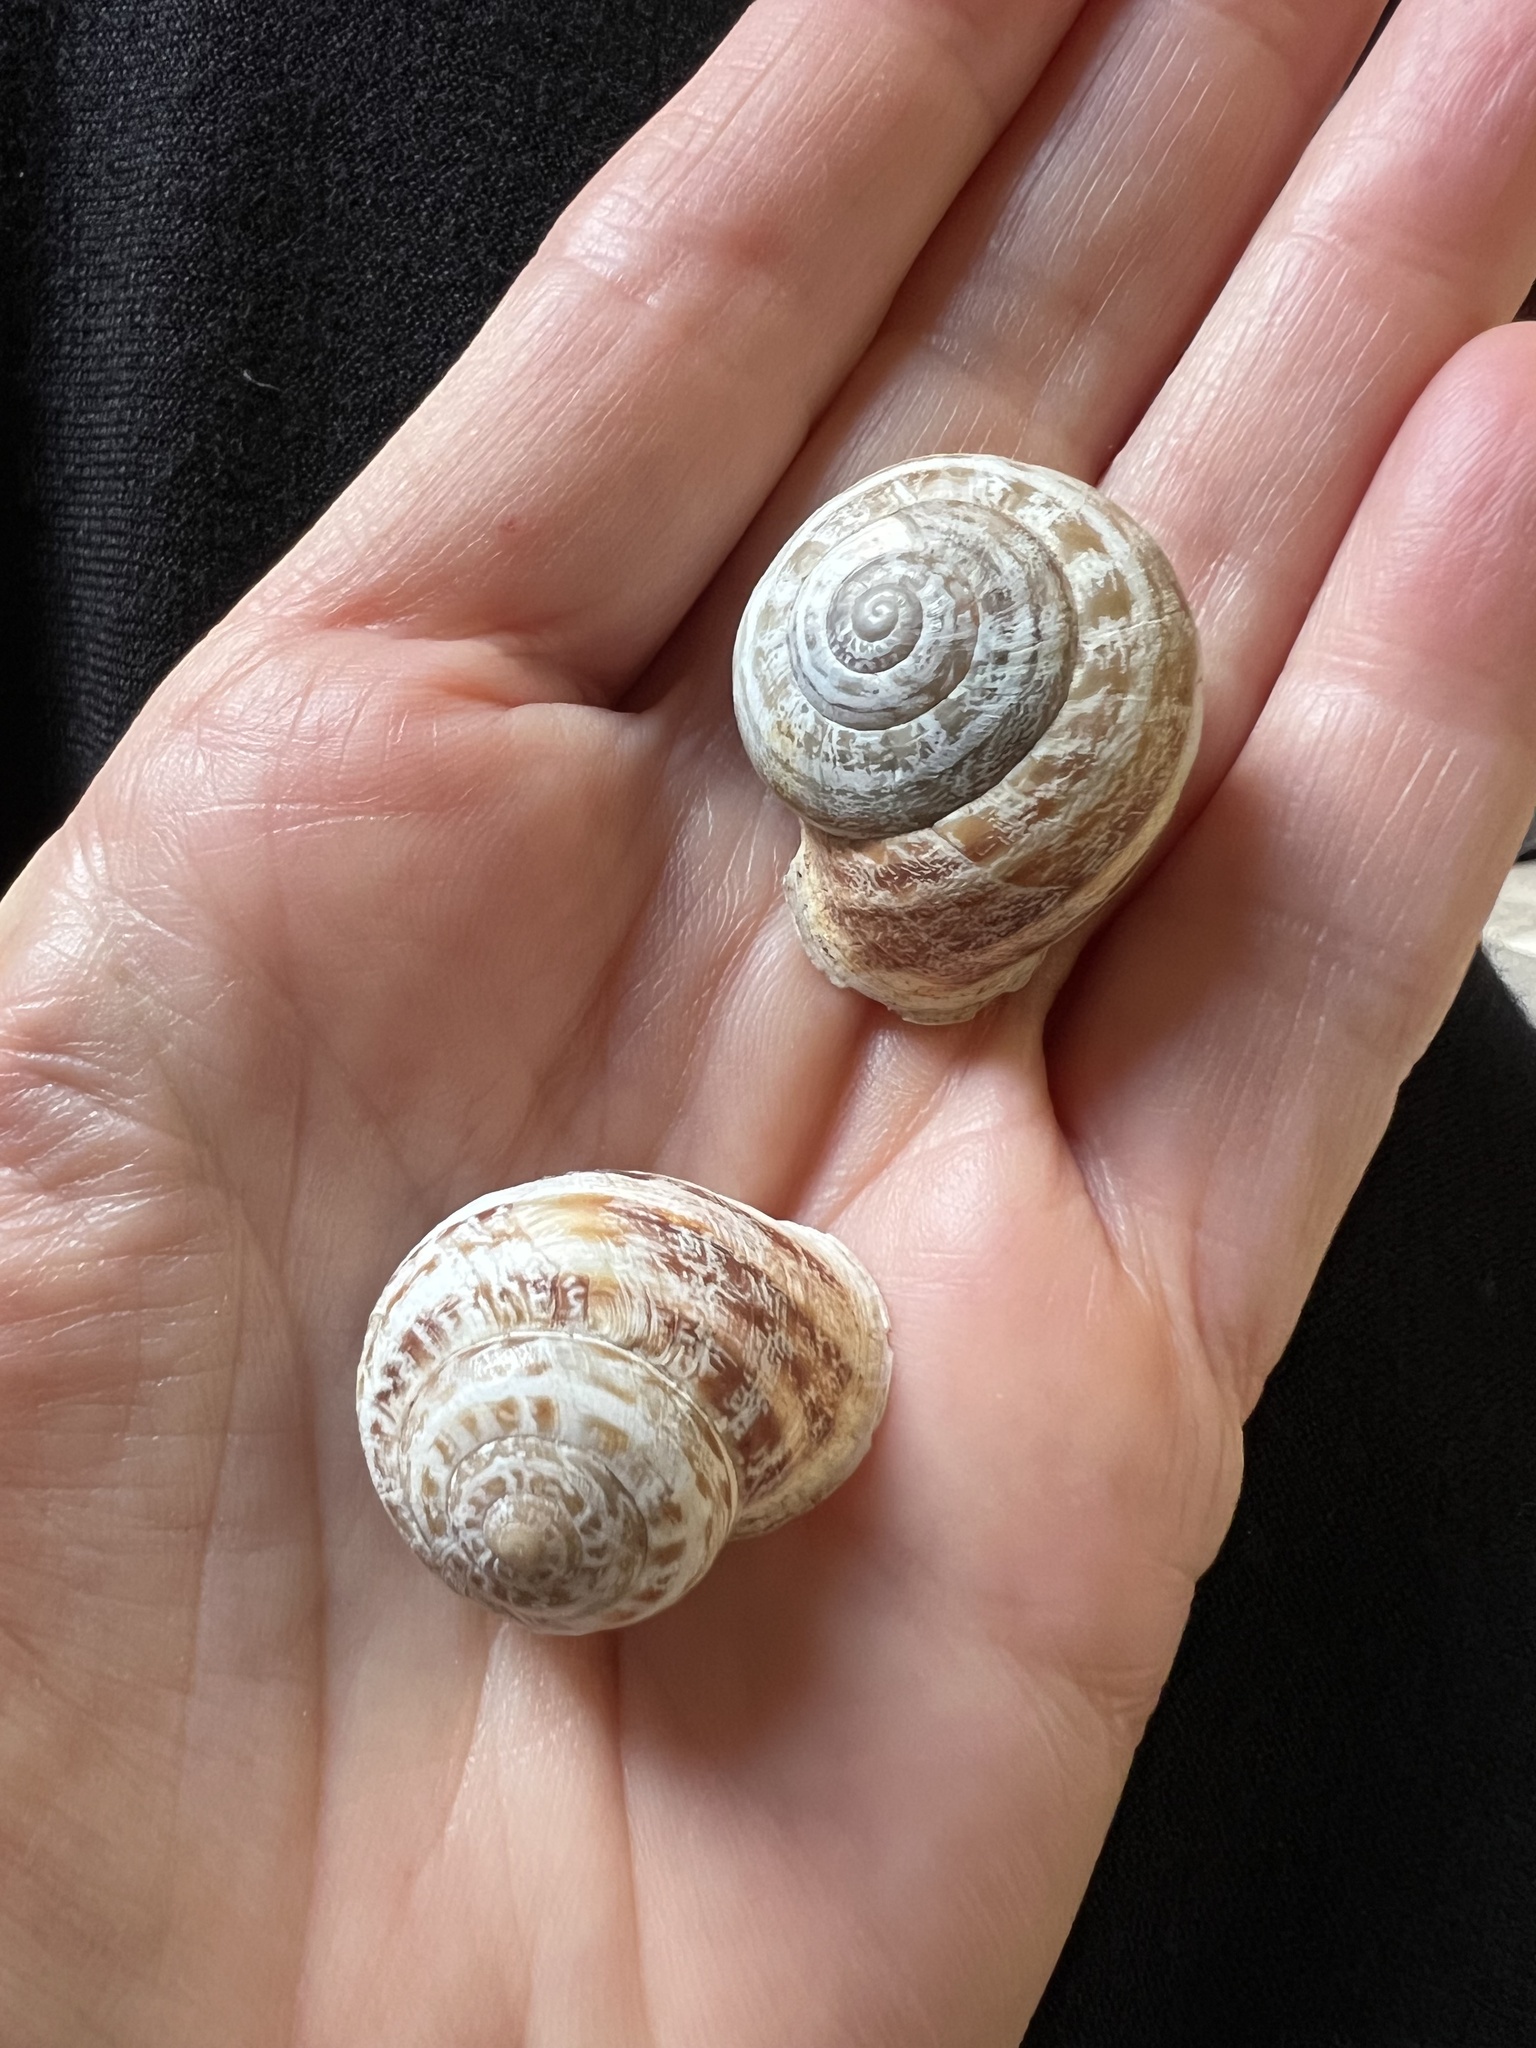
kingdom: Animalia
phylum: Mollusca
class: Gastropoda
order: Stylommatophora
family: Helicidae
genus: Eobania
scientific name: Eobania vermiculata
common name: Chocolateband snail
